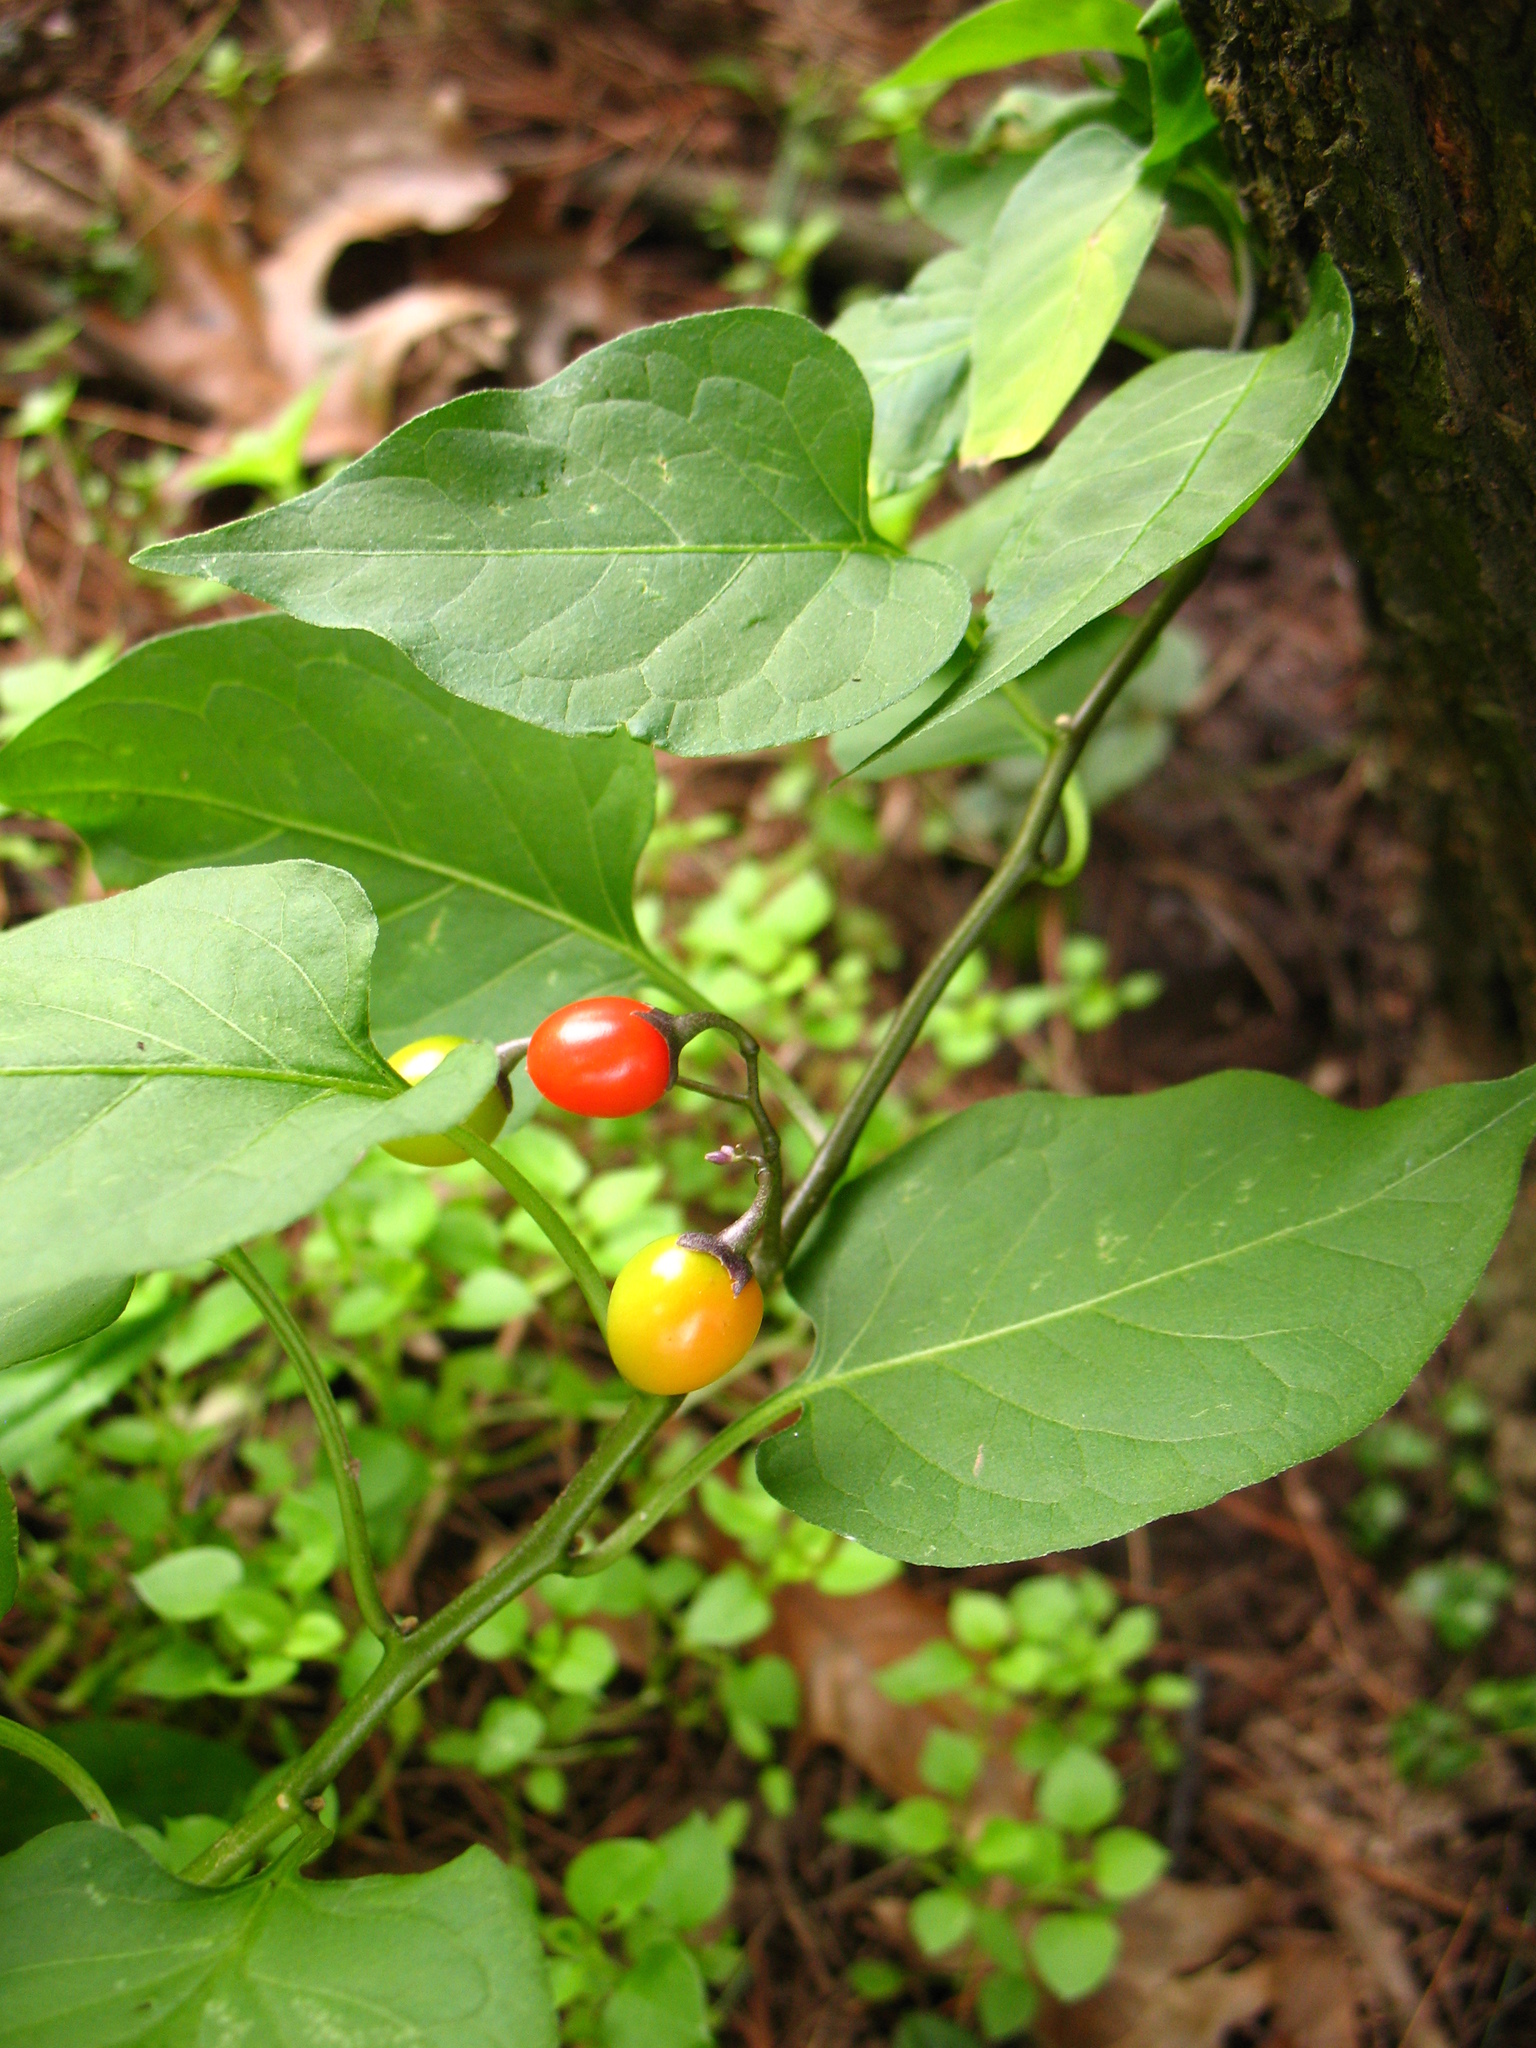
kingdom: Plantae
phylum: Tracheophyta
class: Magnoliopsida
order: Solanales
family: Solanaceae
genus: Solanum
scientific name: Solanum dulcamara
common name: Climbing nightshade
